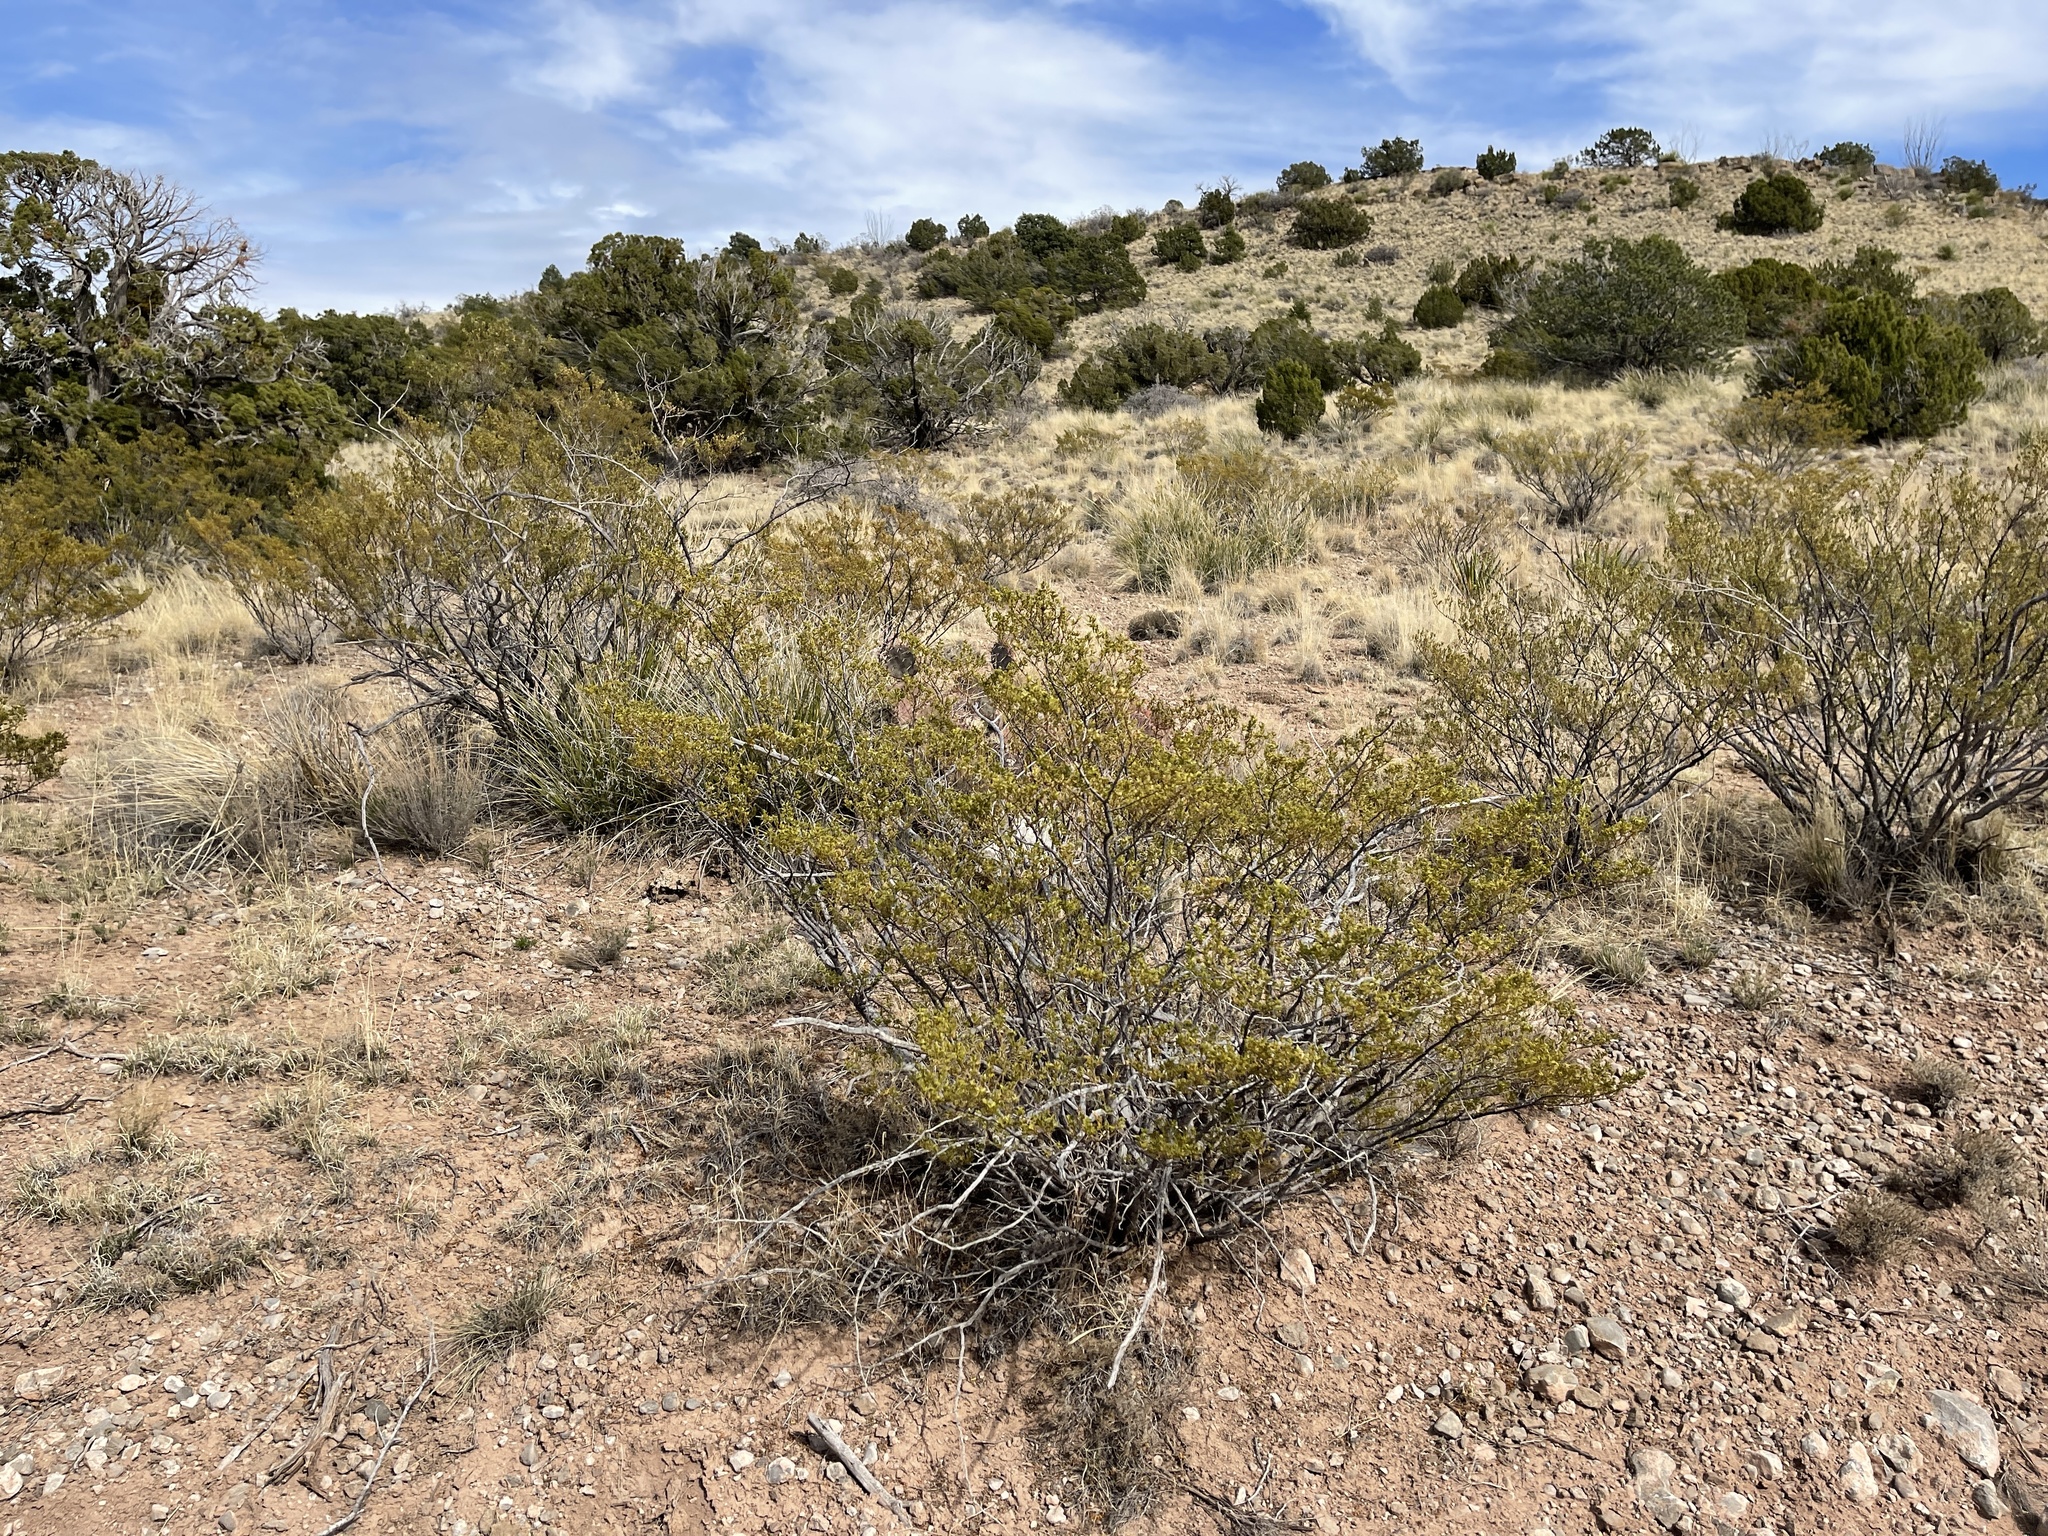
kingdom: Plantae
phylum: Tracheophyta
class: Magnoliopsida
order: Zygophyllales
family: Zygophyllaceae
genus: Larrea
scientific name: Larrea tridentata
